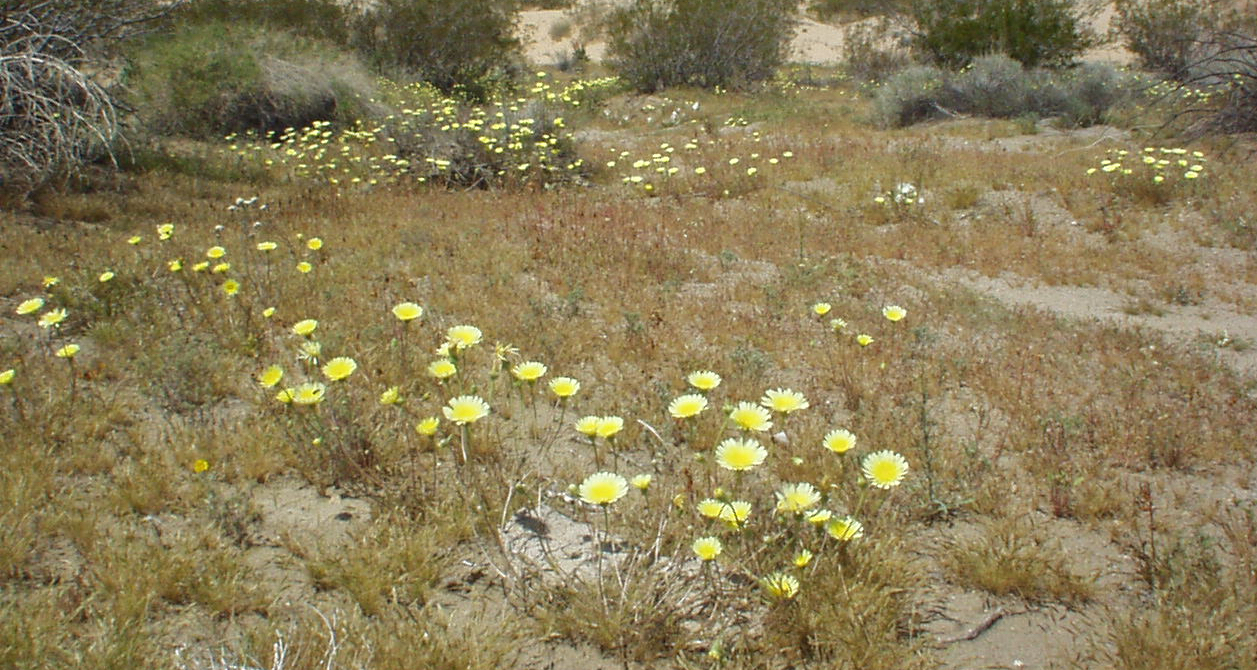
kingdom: Plantae
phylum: Tracheophyta
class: Magnoliopsida
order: Asterales
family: Asteraceae
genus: Malacothrix
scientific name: Malacothrix glabrata
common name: Smooth desert-dandelion
